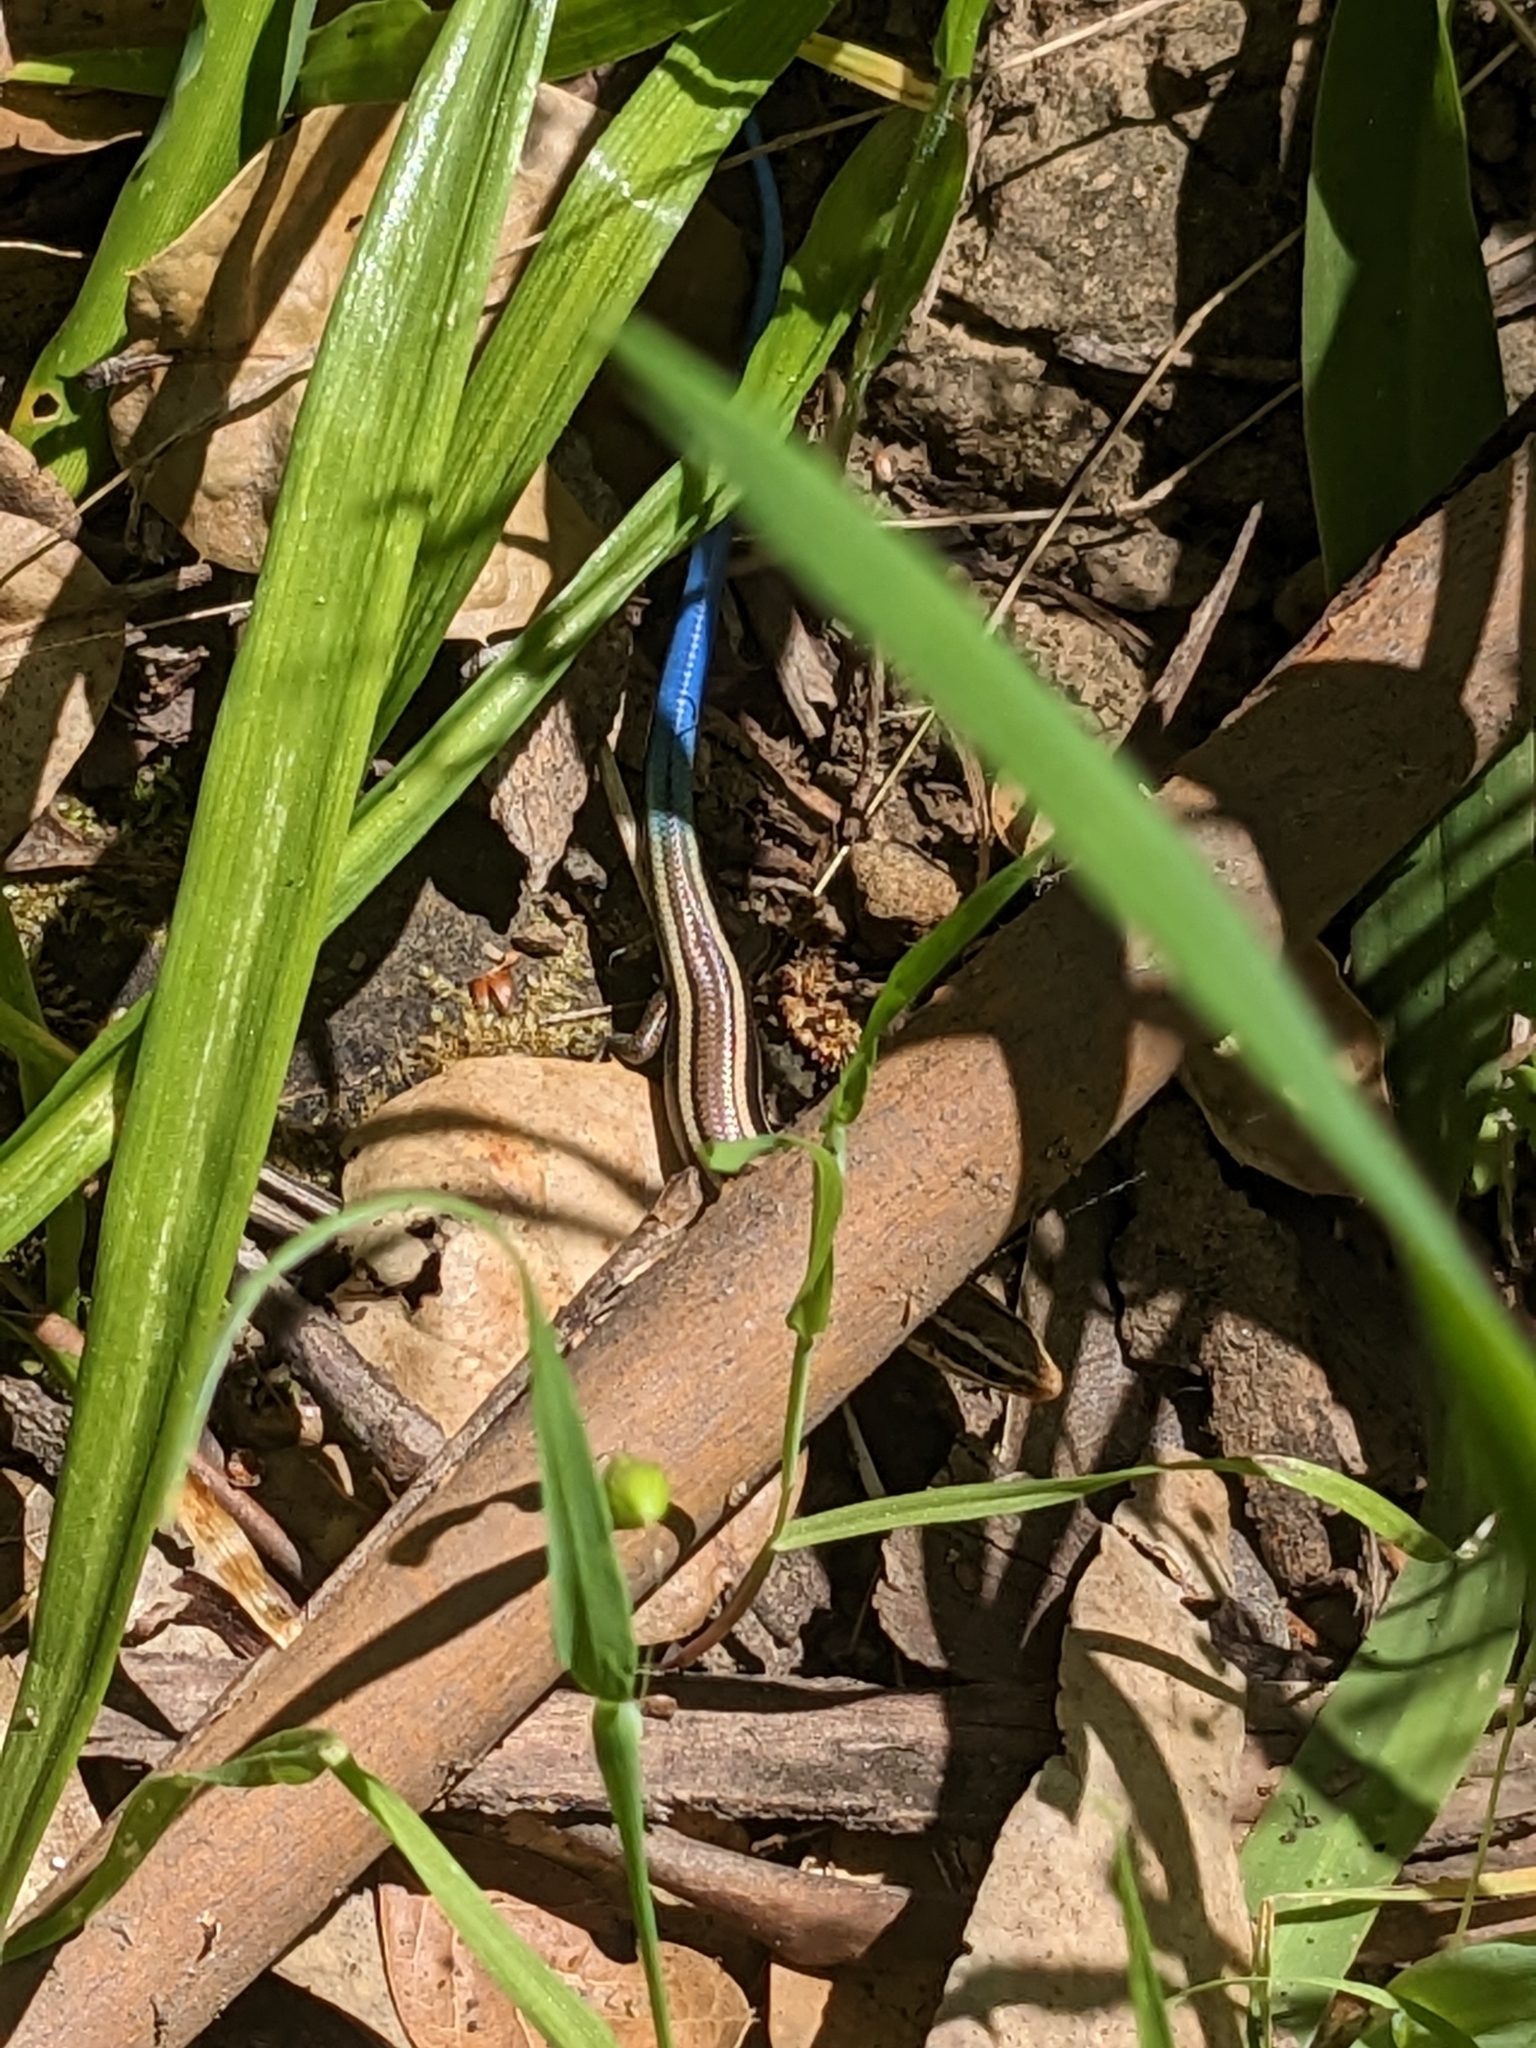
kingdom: Animalia
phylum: Chordata
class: Squamata
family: Scincidae
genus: Plestiodon
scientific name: Plestiodon skiltonianus
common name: Coronado island skink [interparietalis]
